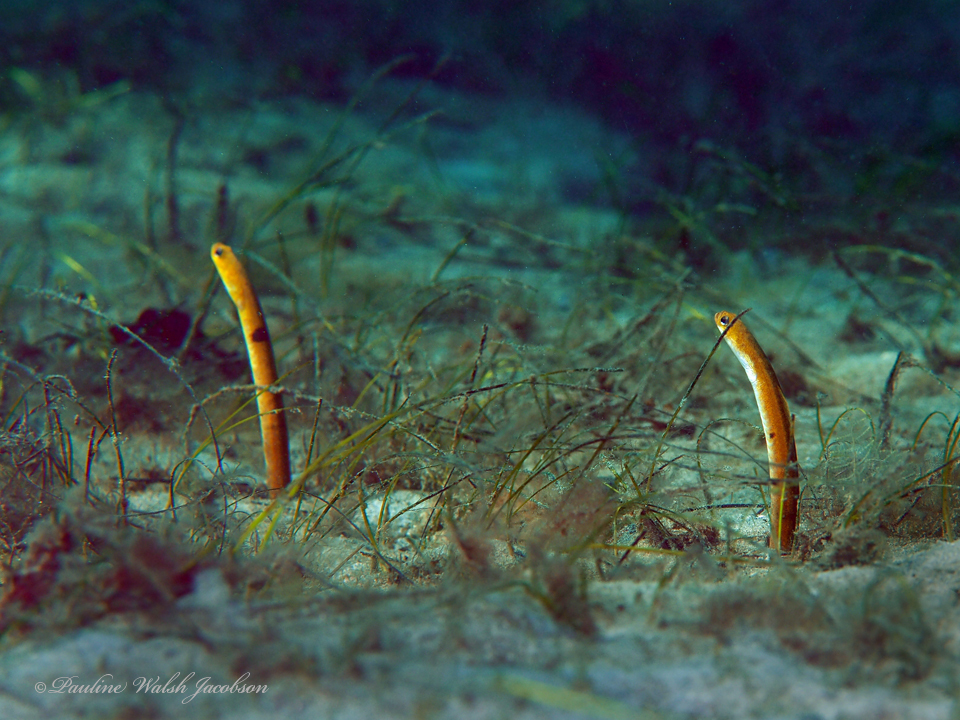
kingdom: Animalia
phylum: Chordata
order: Anguilliformes
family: Congridae
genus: Heteroconger
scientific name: Heteroconger luteolus
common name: Yellow garden eel
